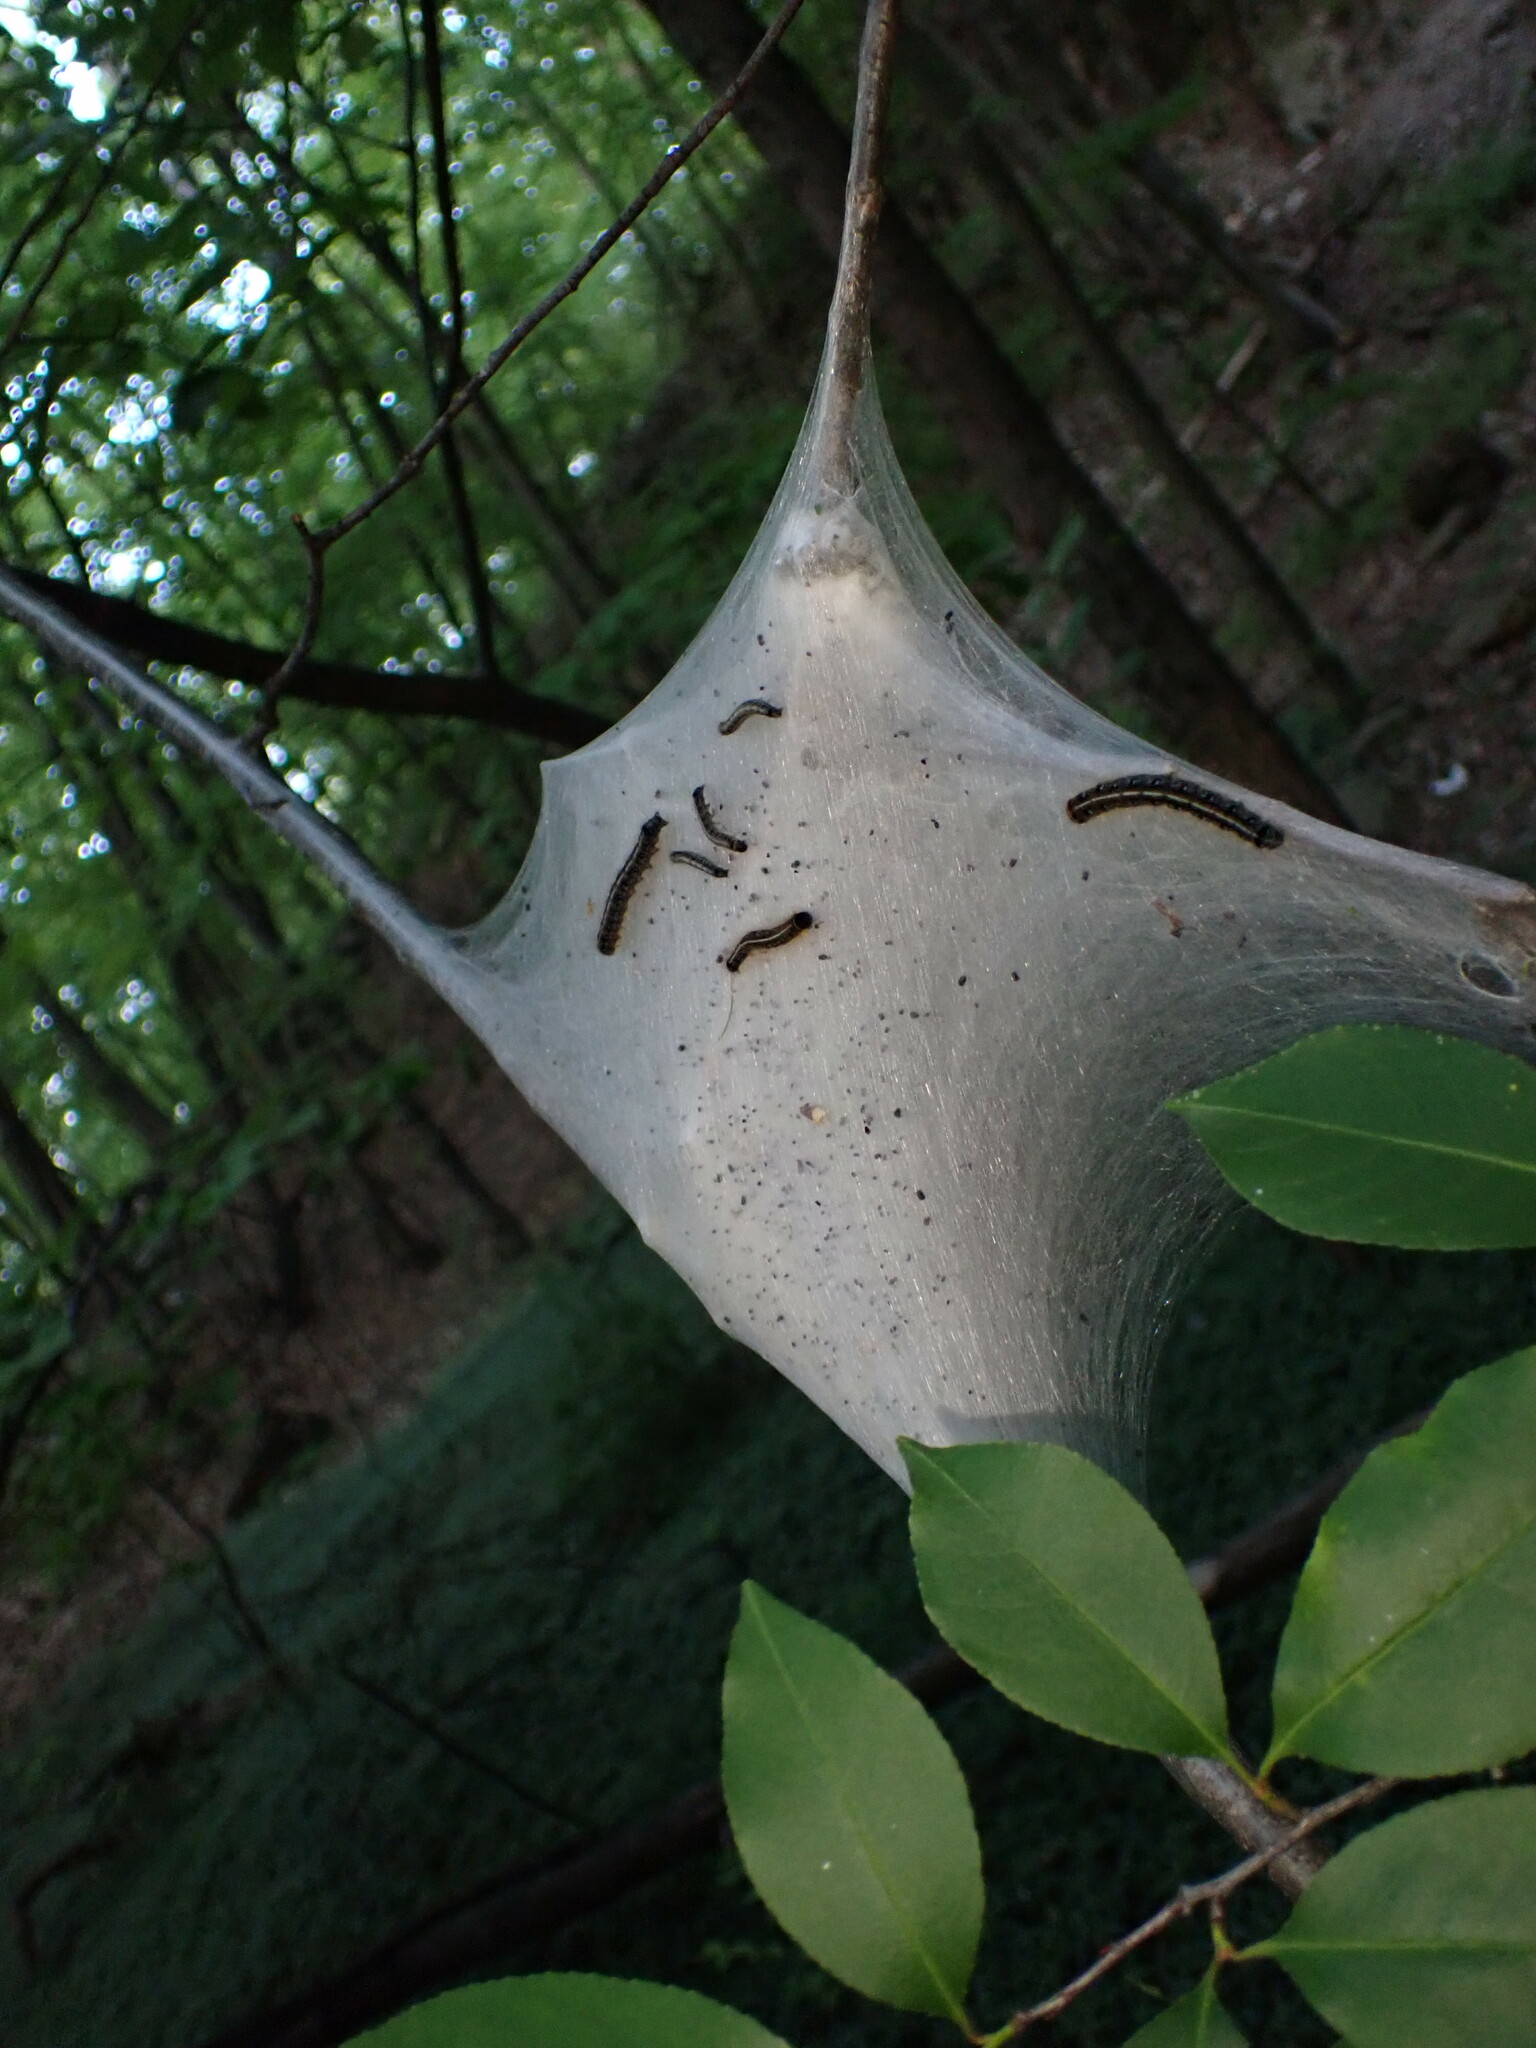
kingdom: Animalia
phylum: Arthropoda
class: Insecta
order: Lepidoptera
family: Lasiocampidae
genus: Malacosoma
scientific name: Malacosoma americana
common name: Eastern tent caterpillar moth
